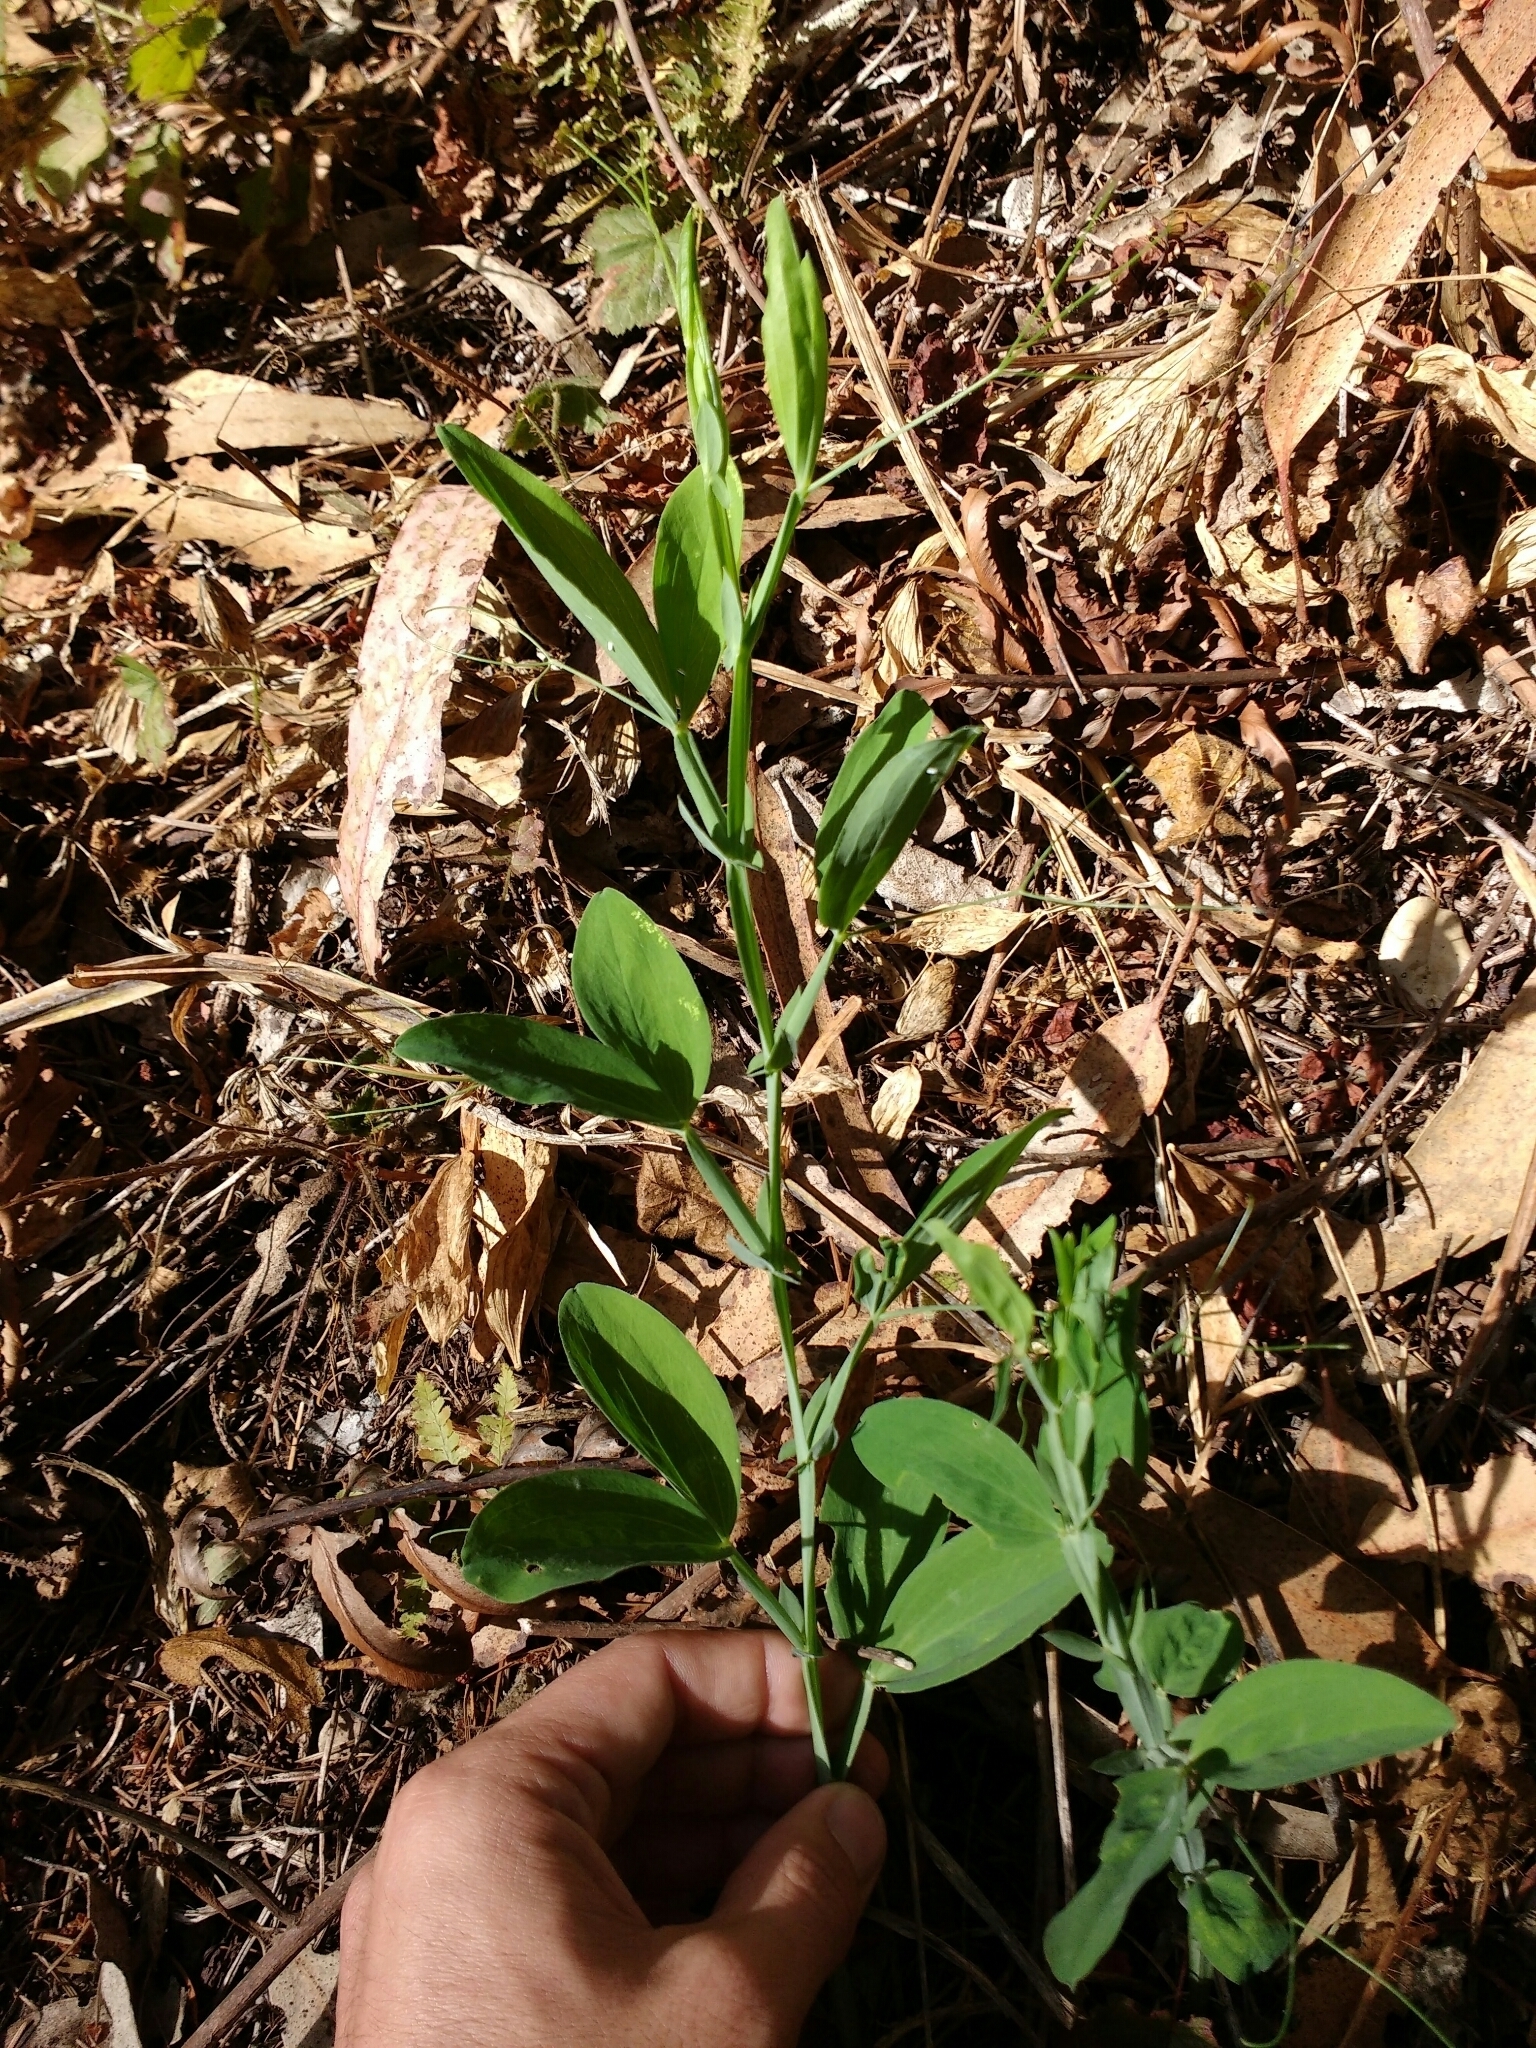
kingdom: Plantae
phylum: Tracheophyta
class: Magnoliopsida
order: Fabales
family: Fabaceae
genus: Lathyrus
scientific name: Lathyrus latifolius
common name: Perennial pea
